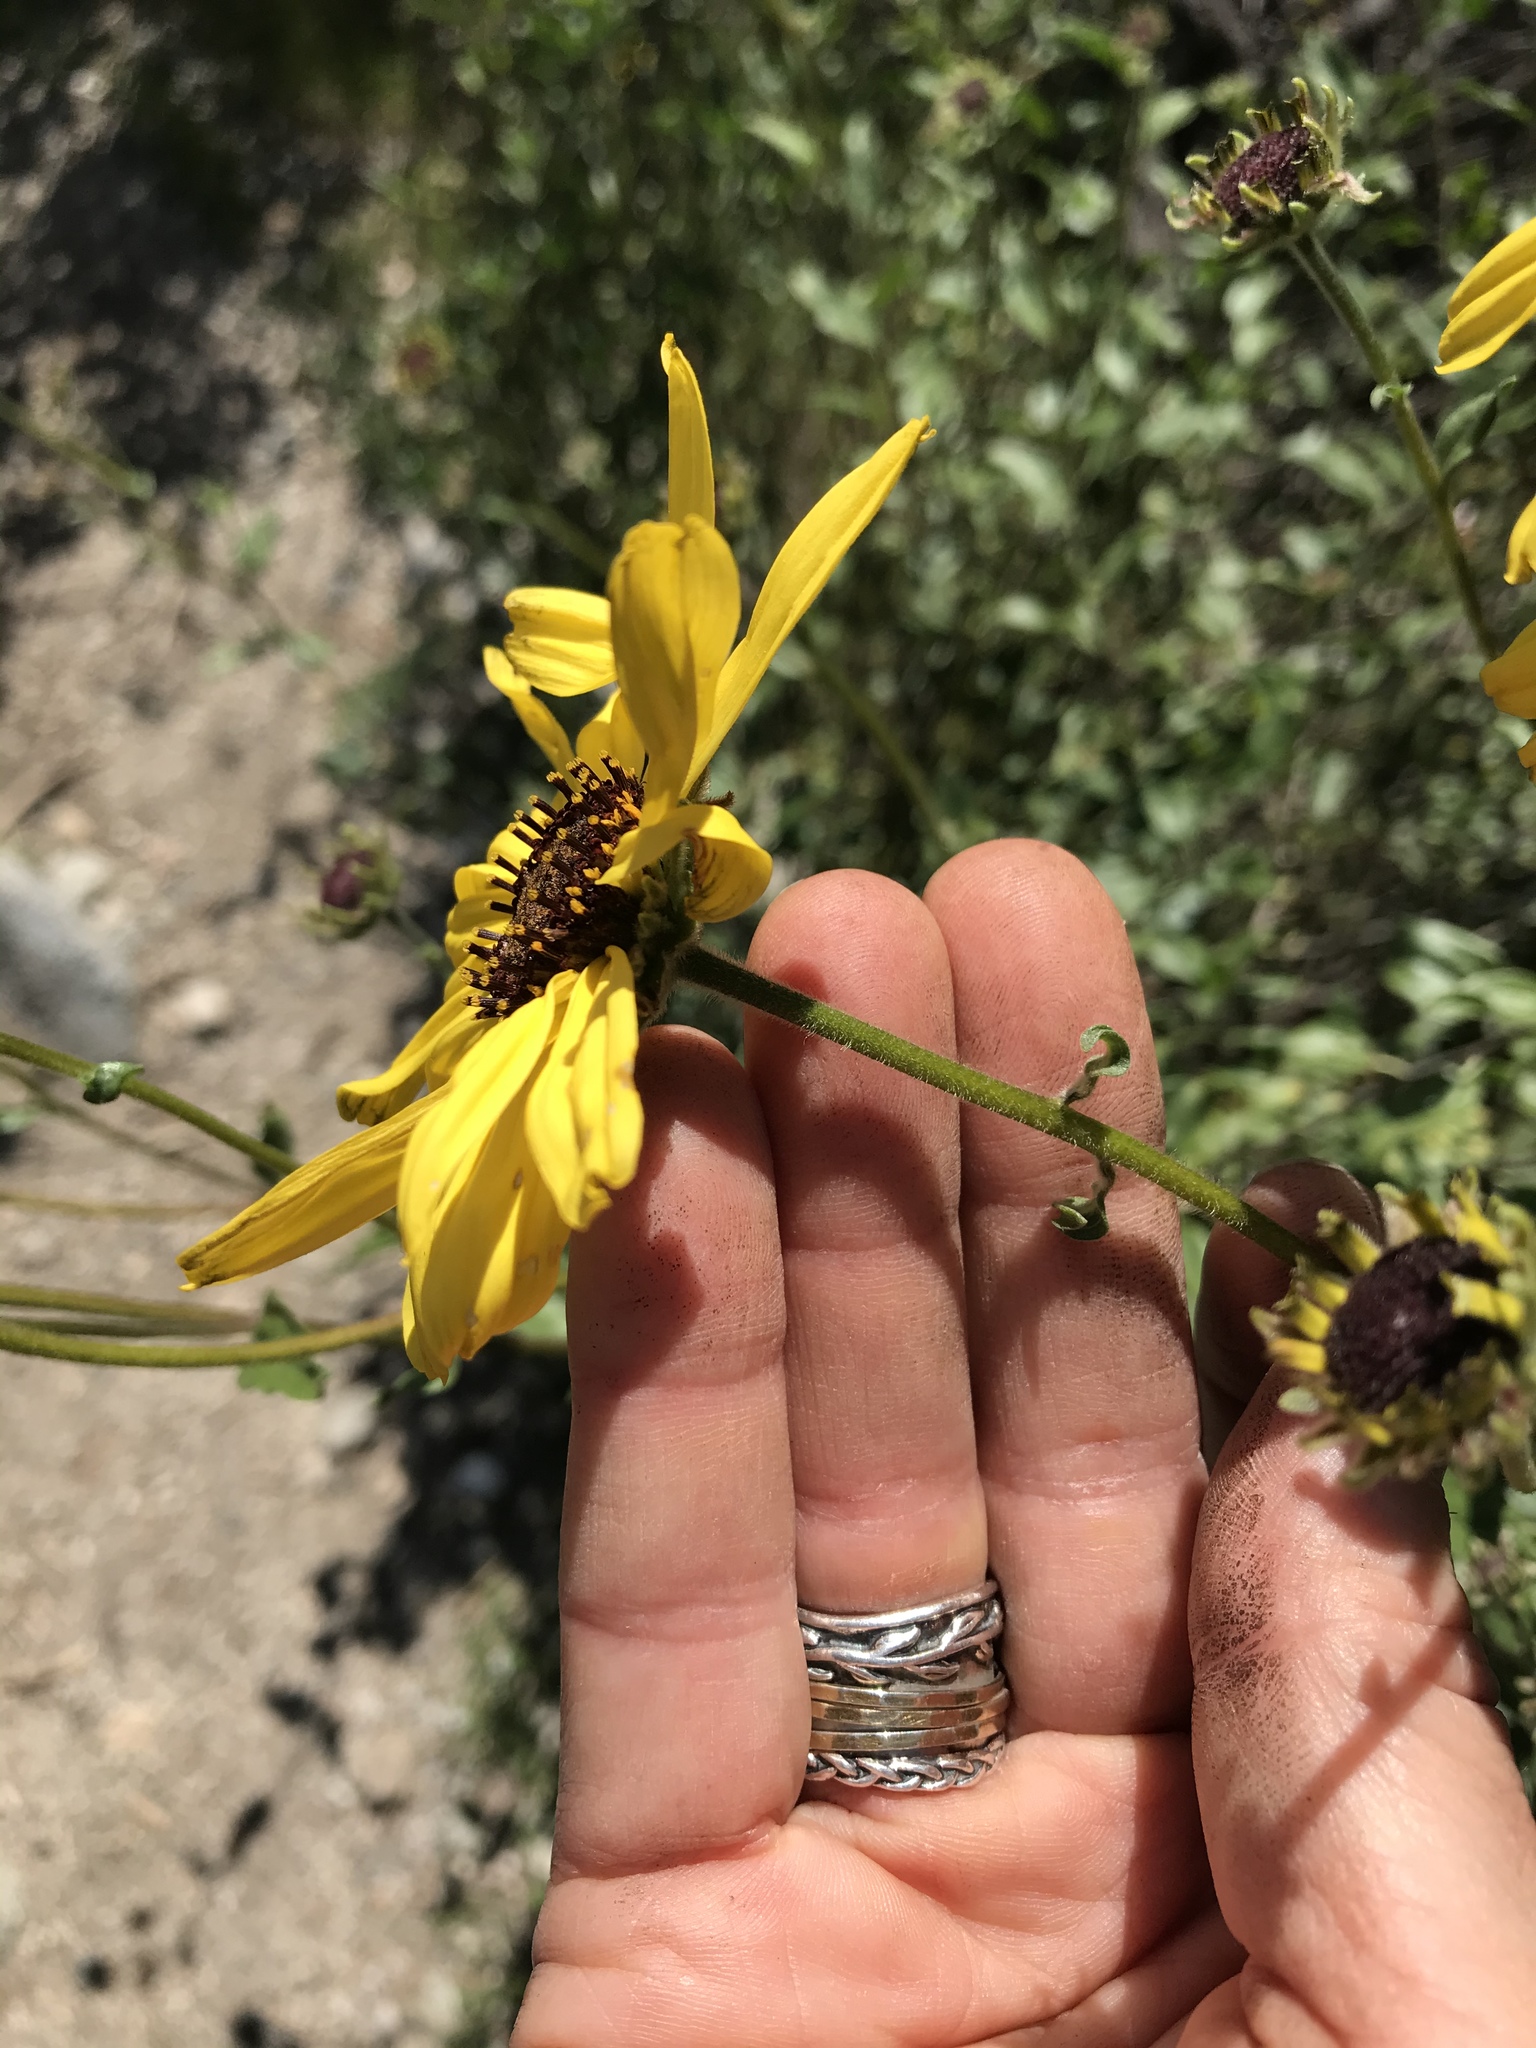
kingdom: Plantae
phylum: Tracheophyta
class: Magnoliopsida
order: Asterales
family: Asteraceae
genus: Encelia
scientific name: Encelia californica
